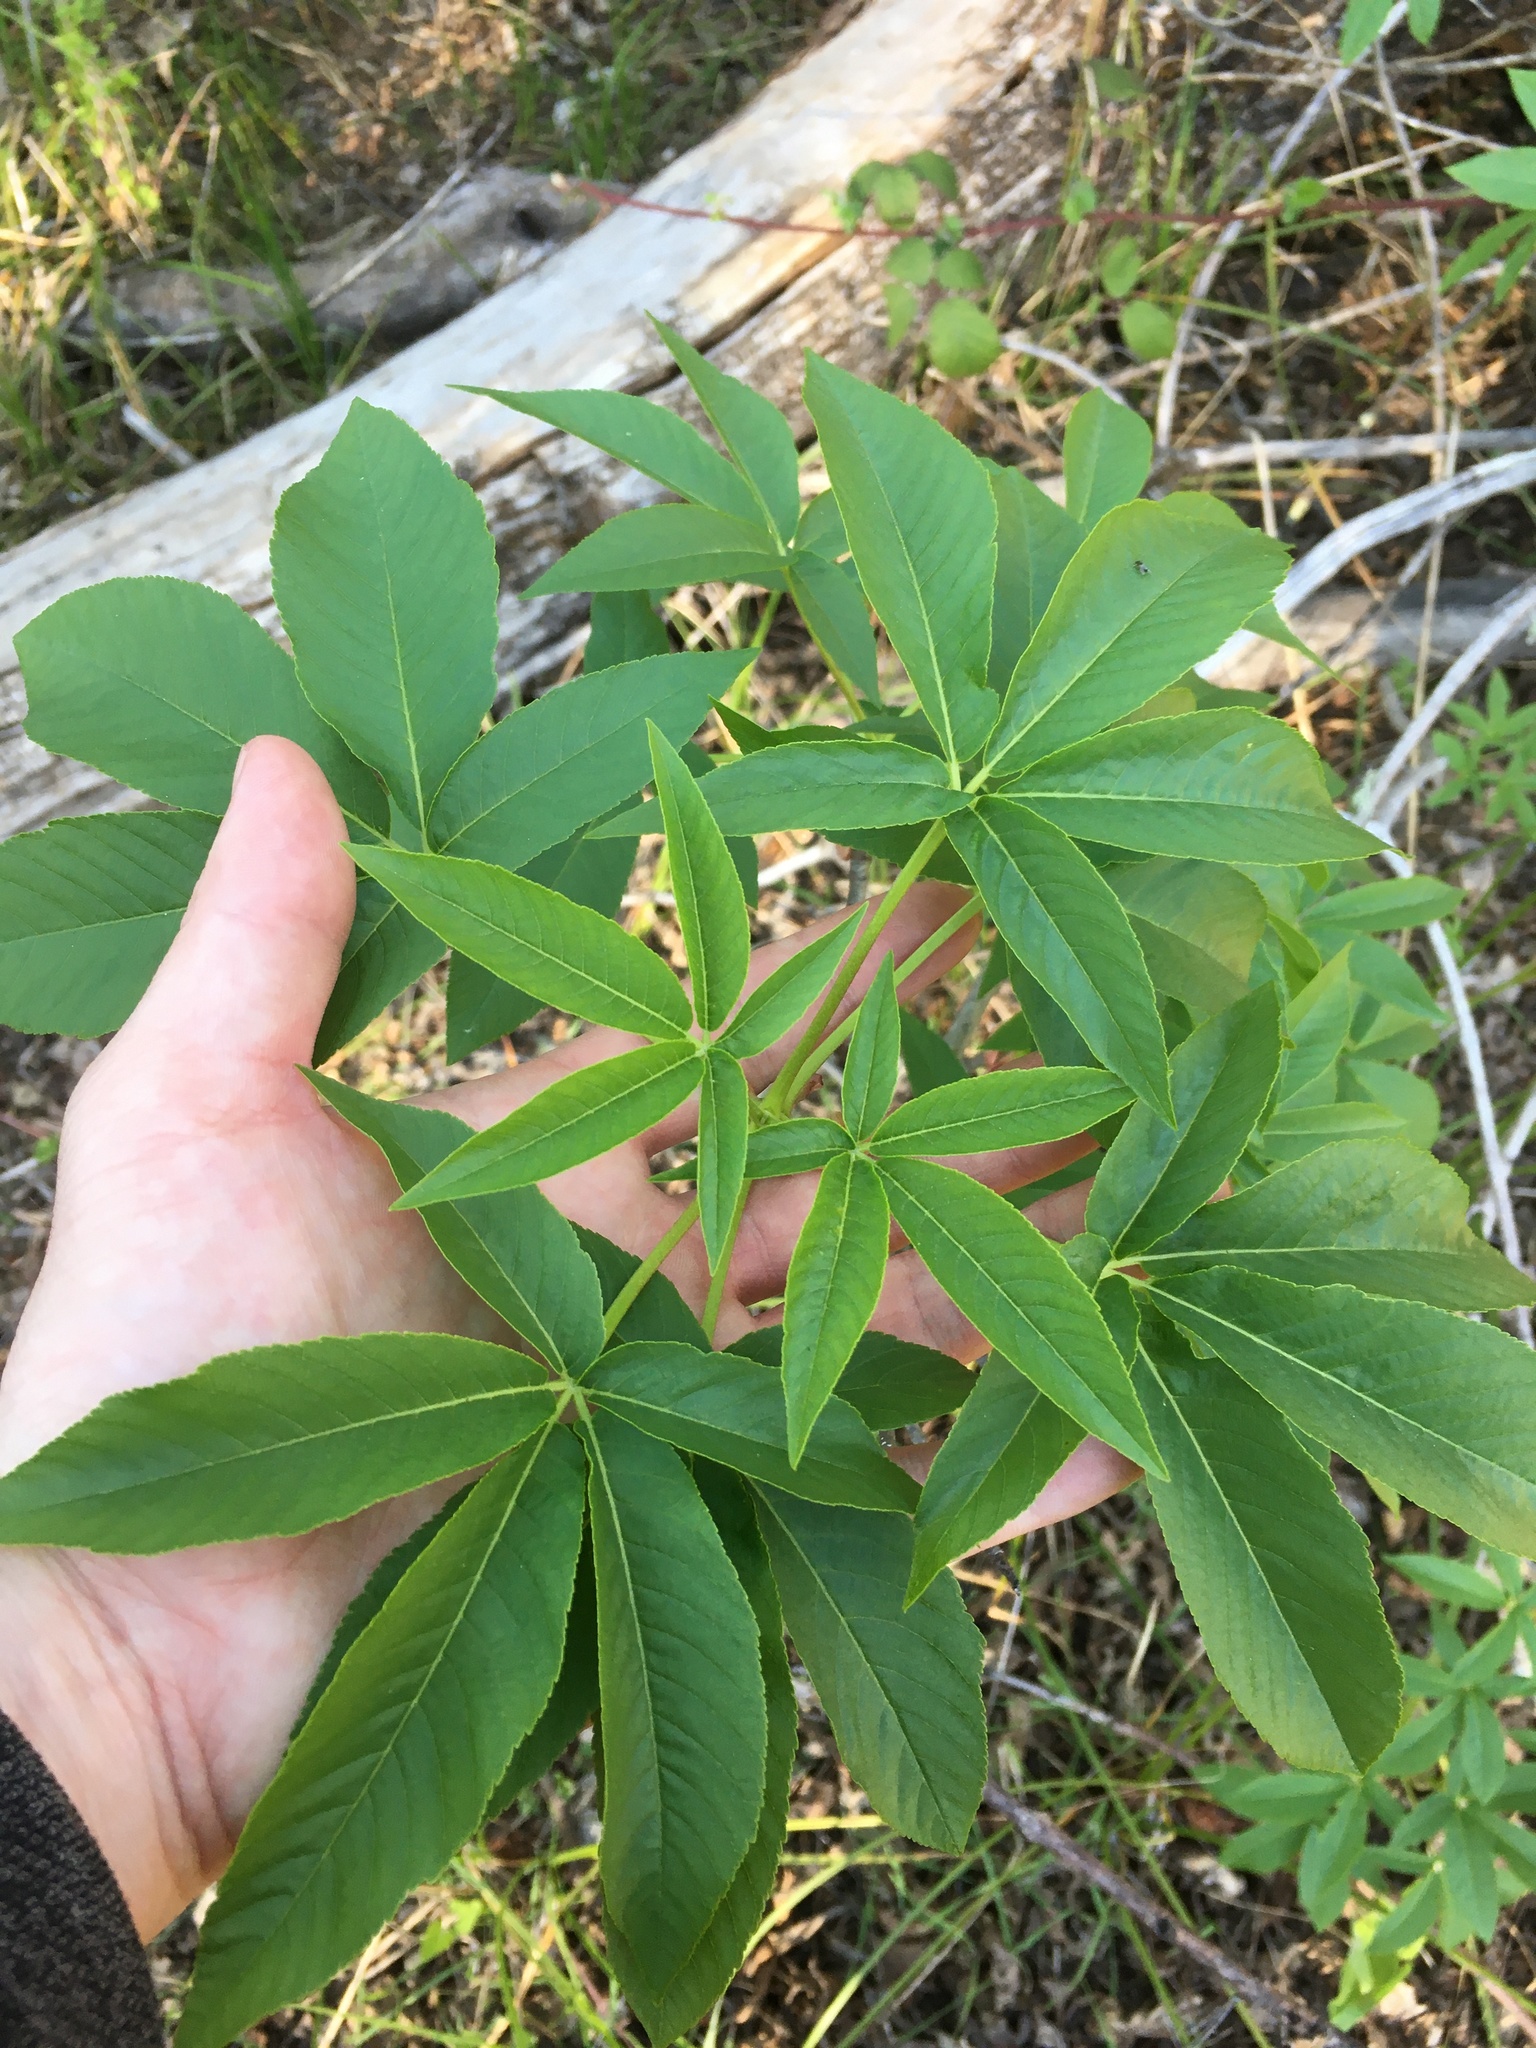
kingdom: Plantae
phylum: Tracheophyta
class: Magnoliopsida
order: Sapindales
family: Sapindaceae
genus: Aesculus
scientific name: Aesculus californica
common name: California buckeye
